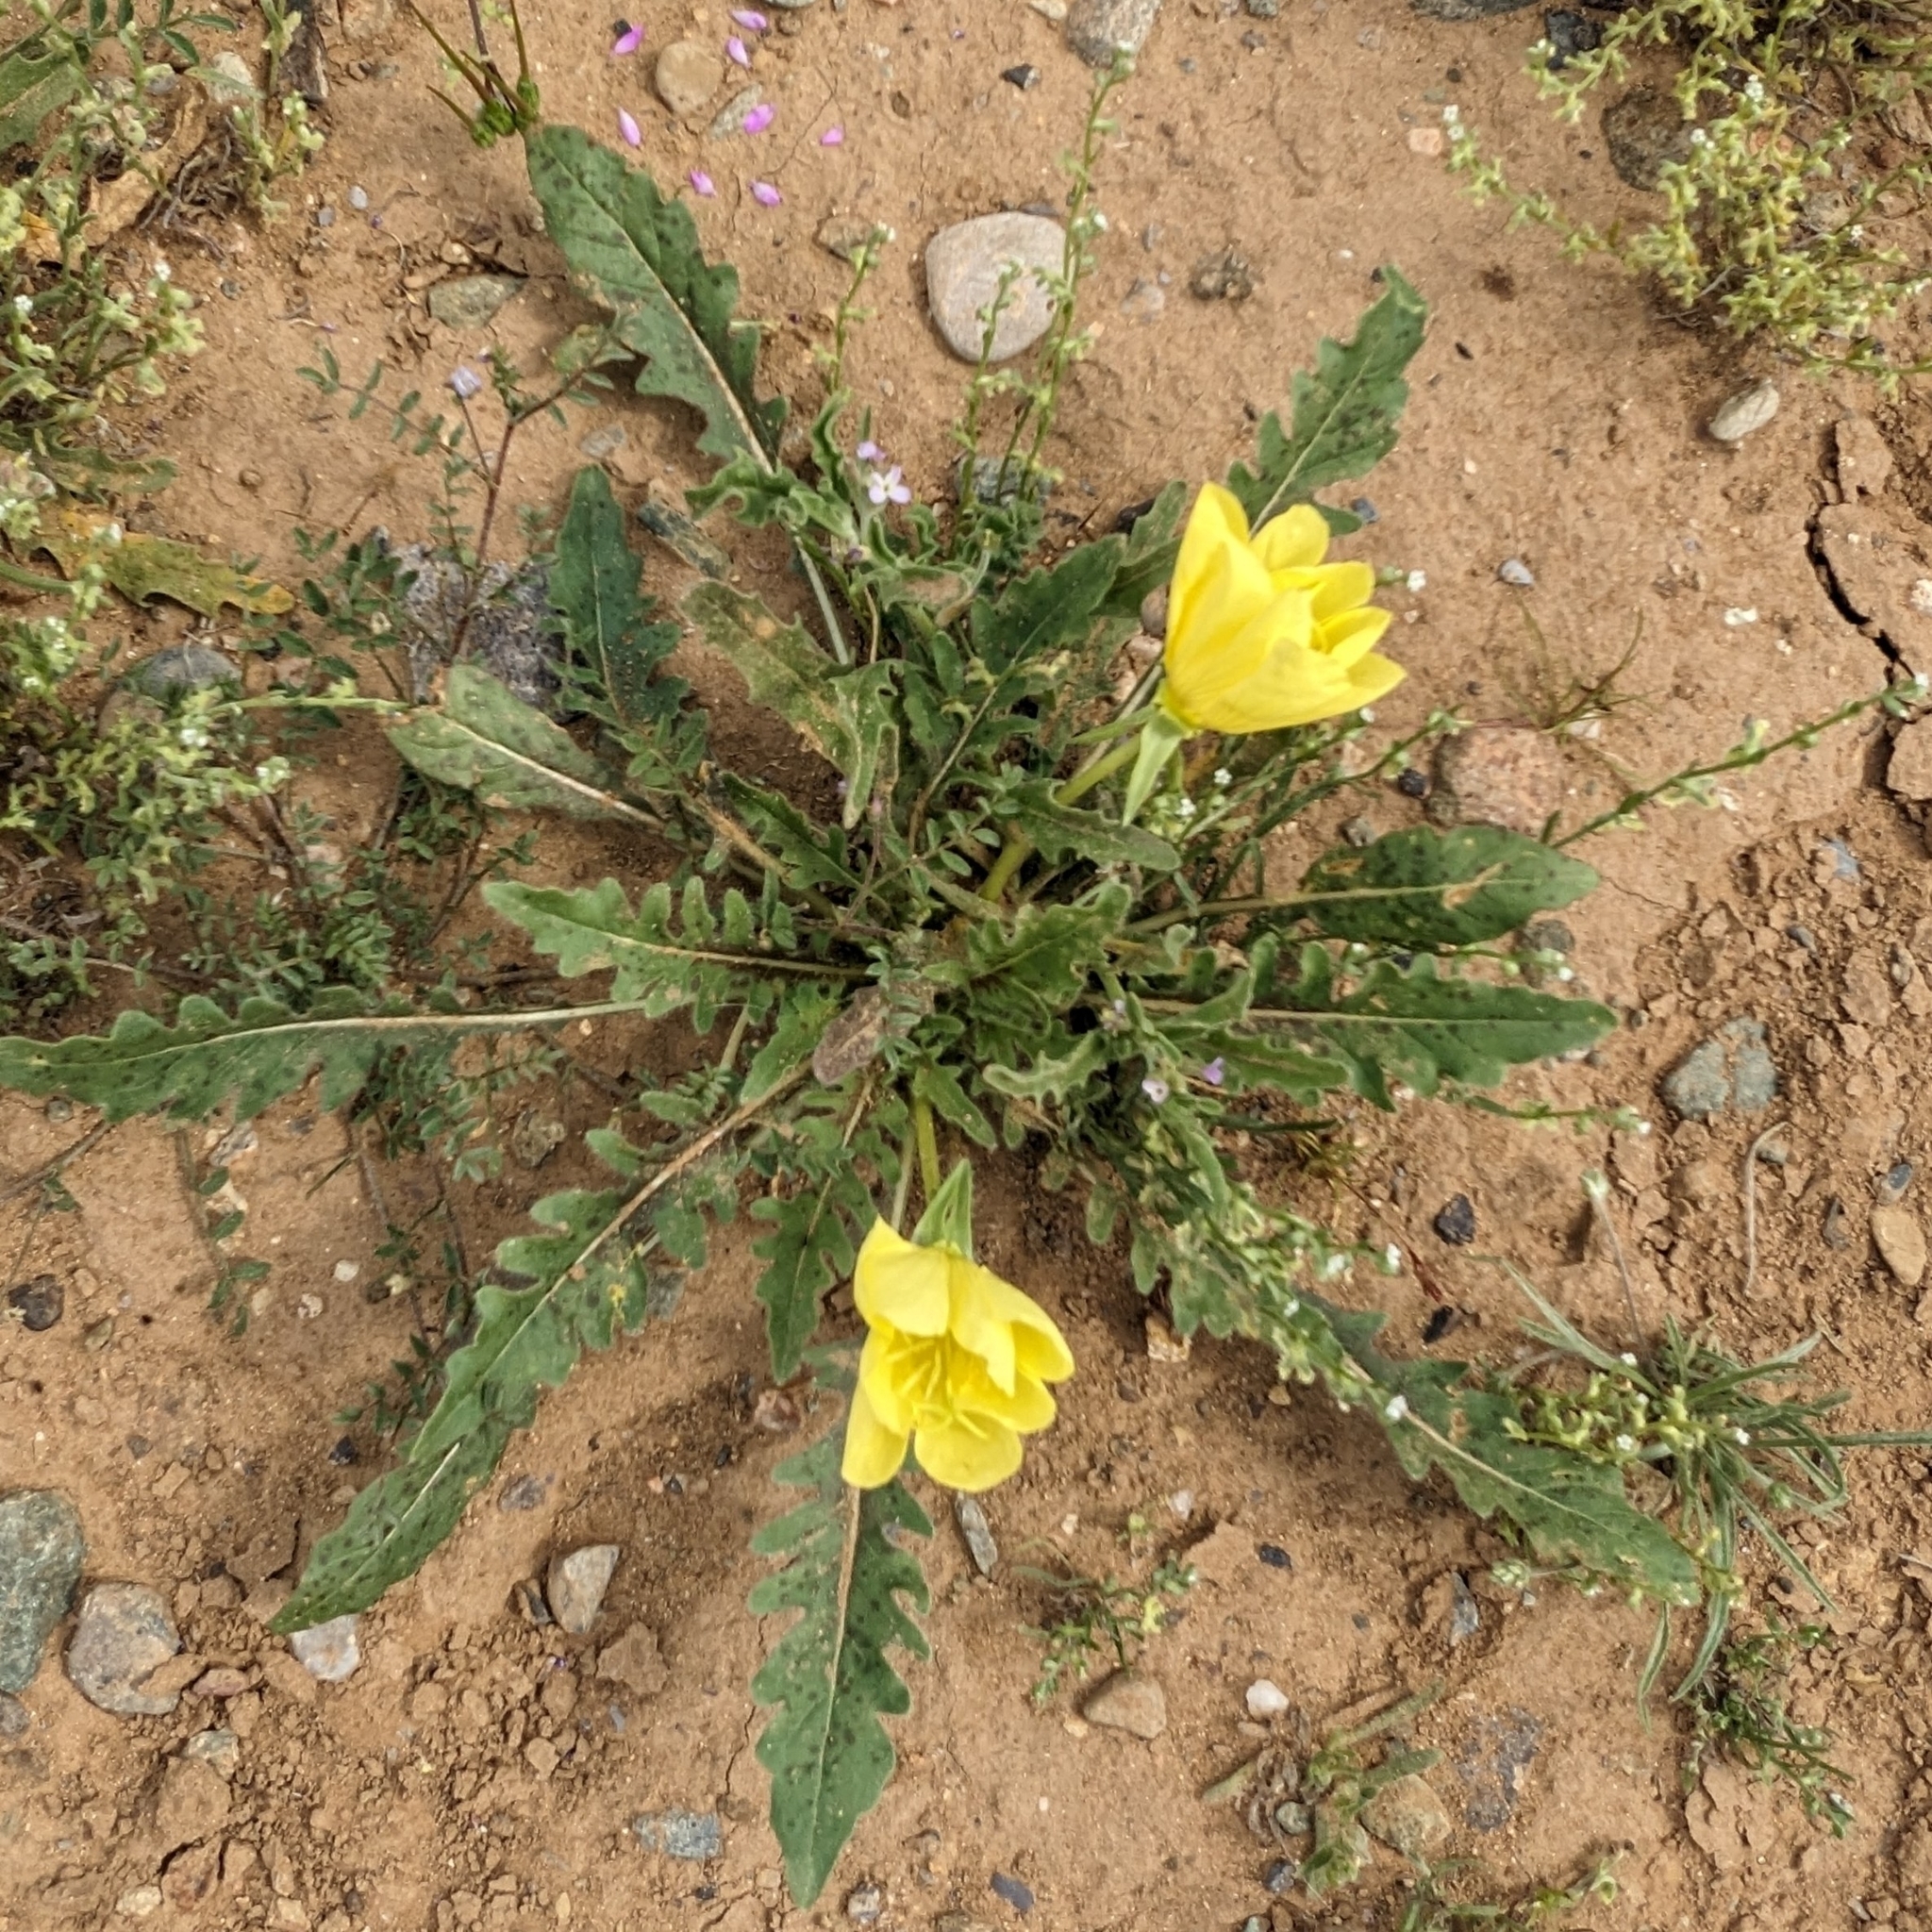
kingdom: Plantae
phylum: Tracheophyta
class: Magnoliopsida
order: Myrtales
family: Onagraceae
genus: Oenothera
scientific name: Oenothera primiveris
